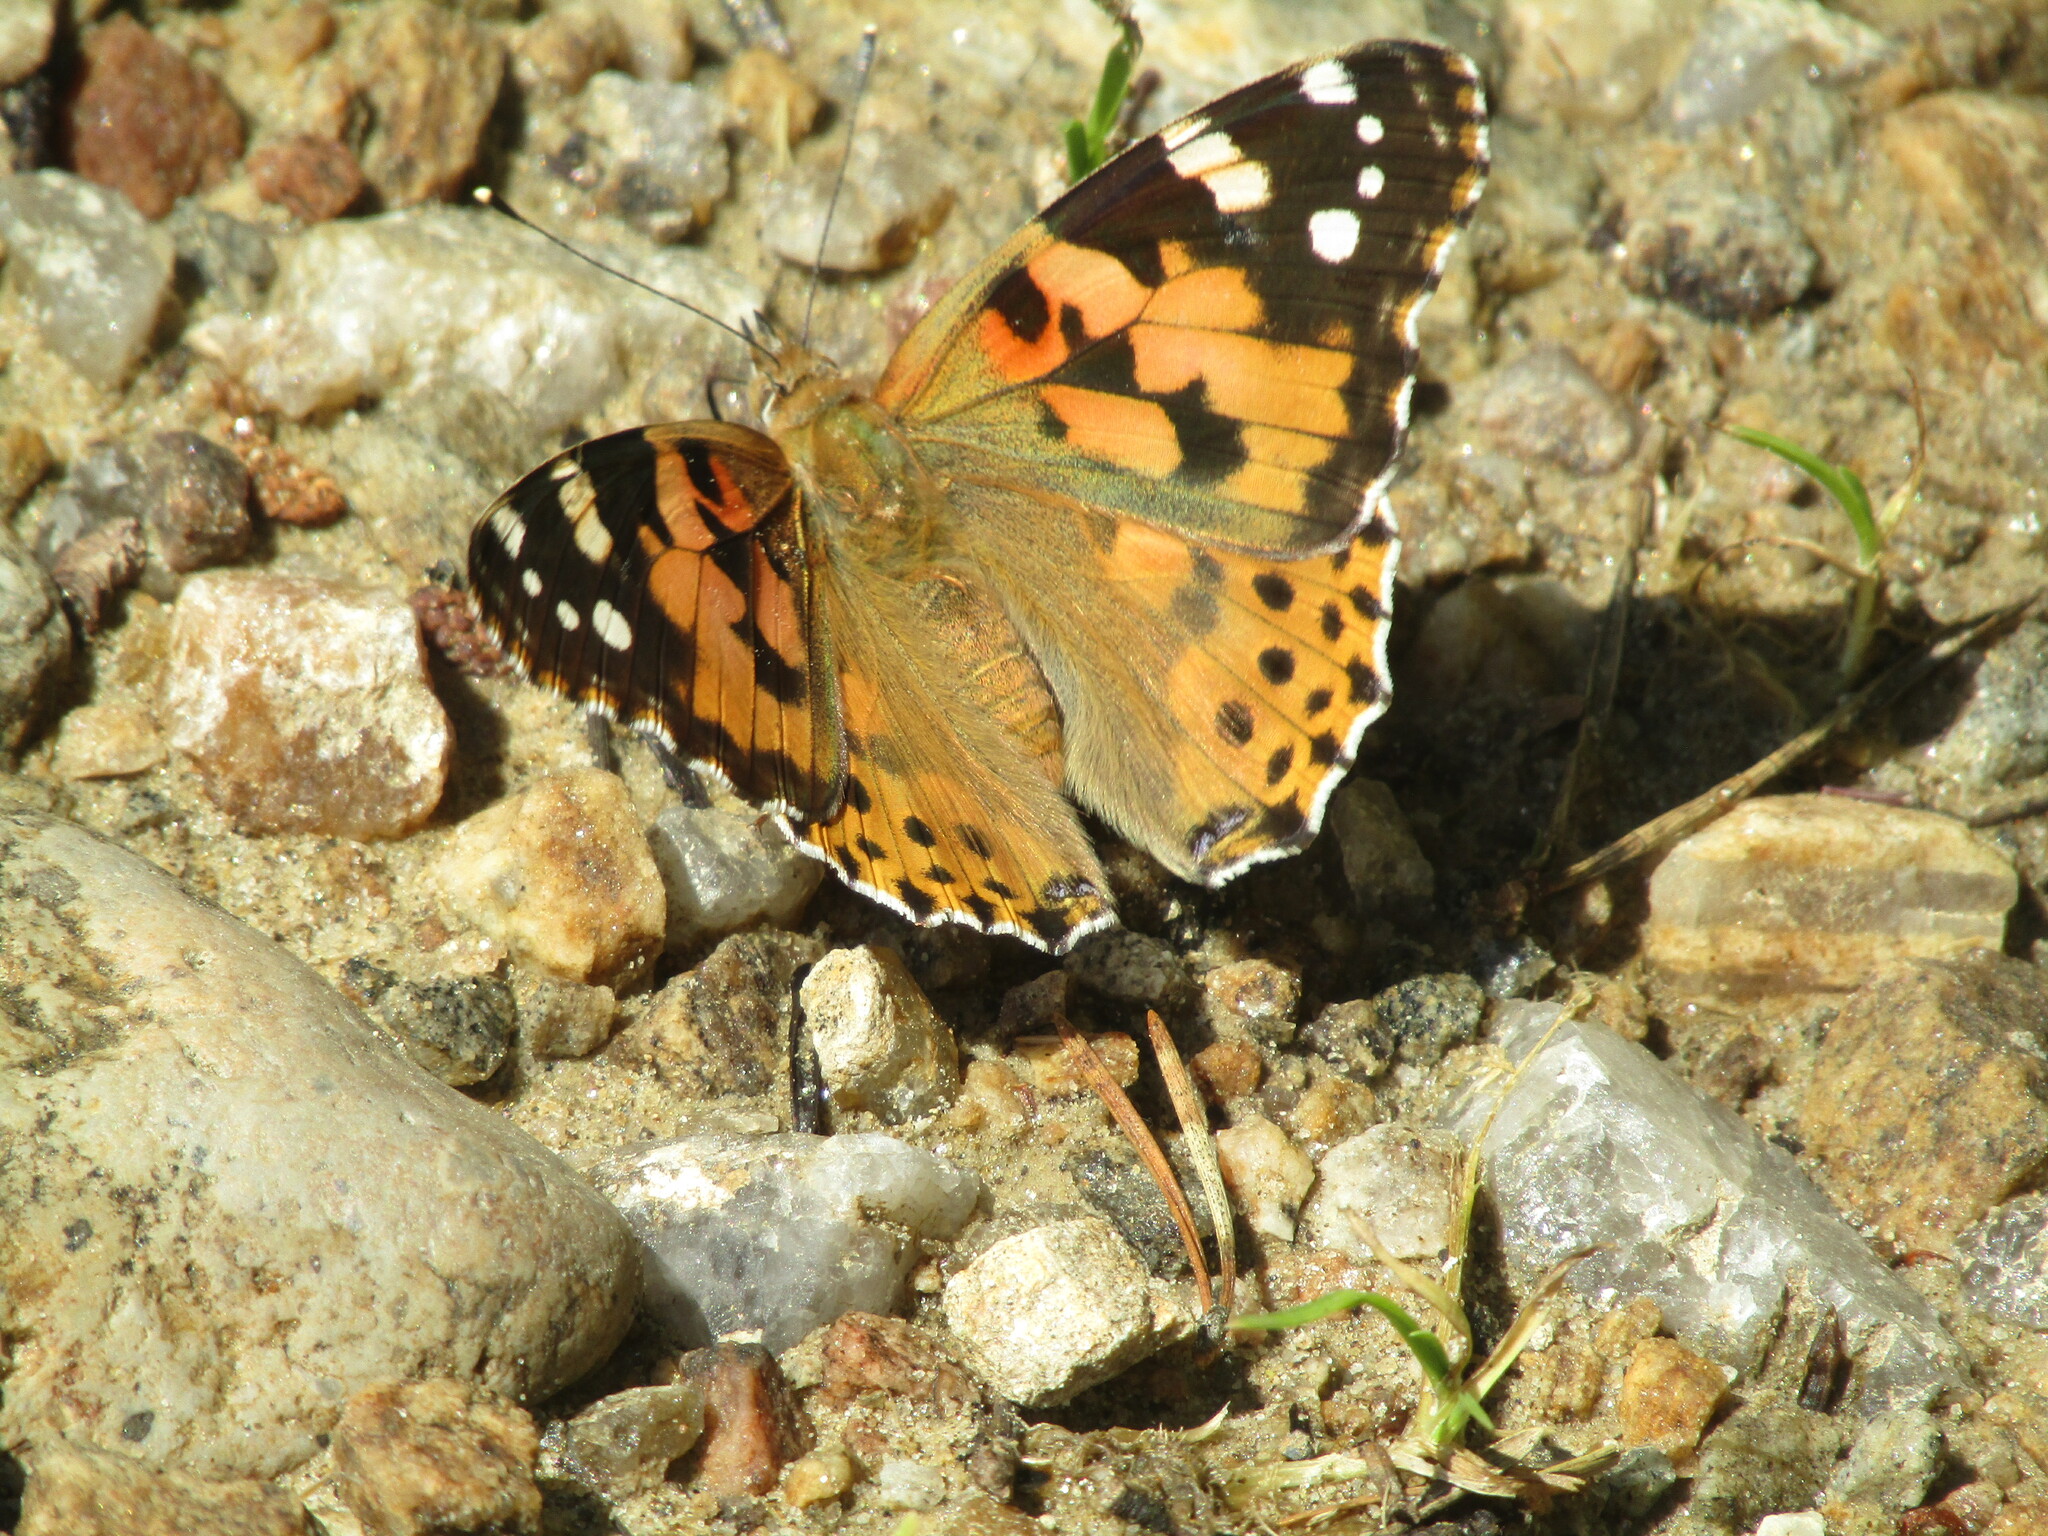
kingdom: Animalia
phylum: Arthropoda
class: Insecta
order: Lepidoptera
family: Nymphalidae
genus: Vanessa
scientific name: Vanessa cardui
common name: Painted lady
